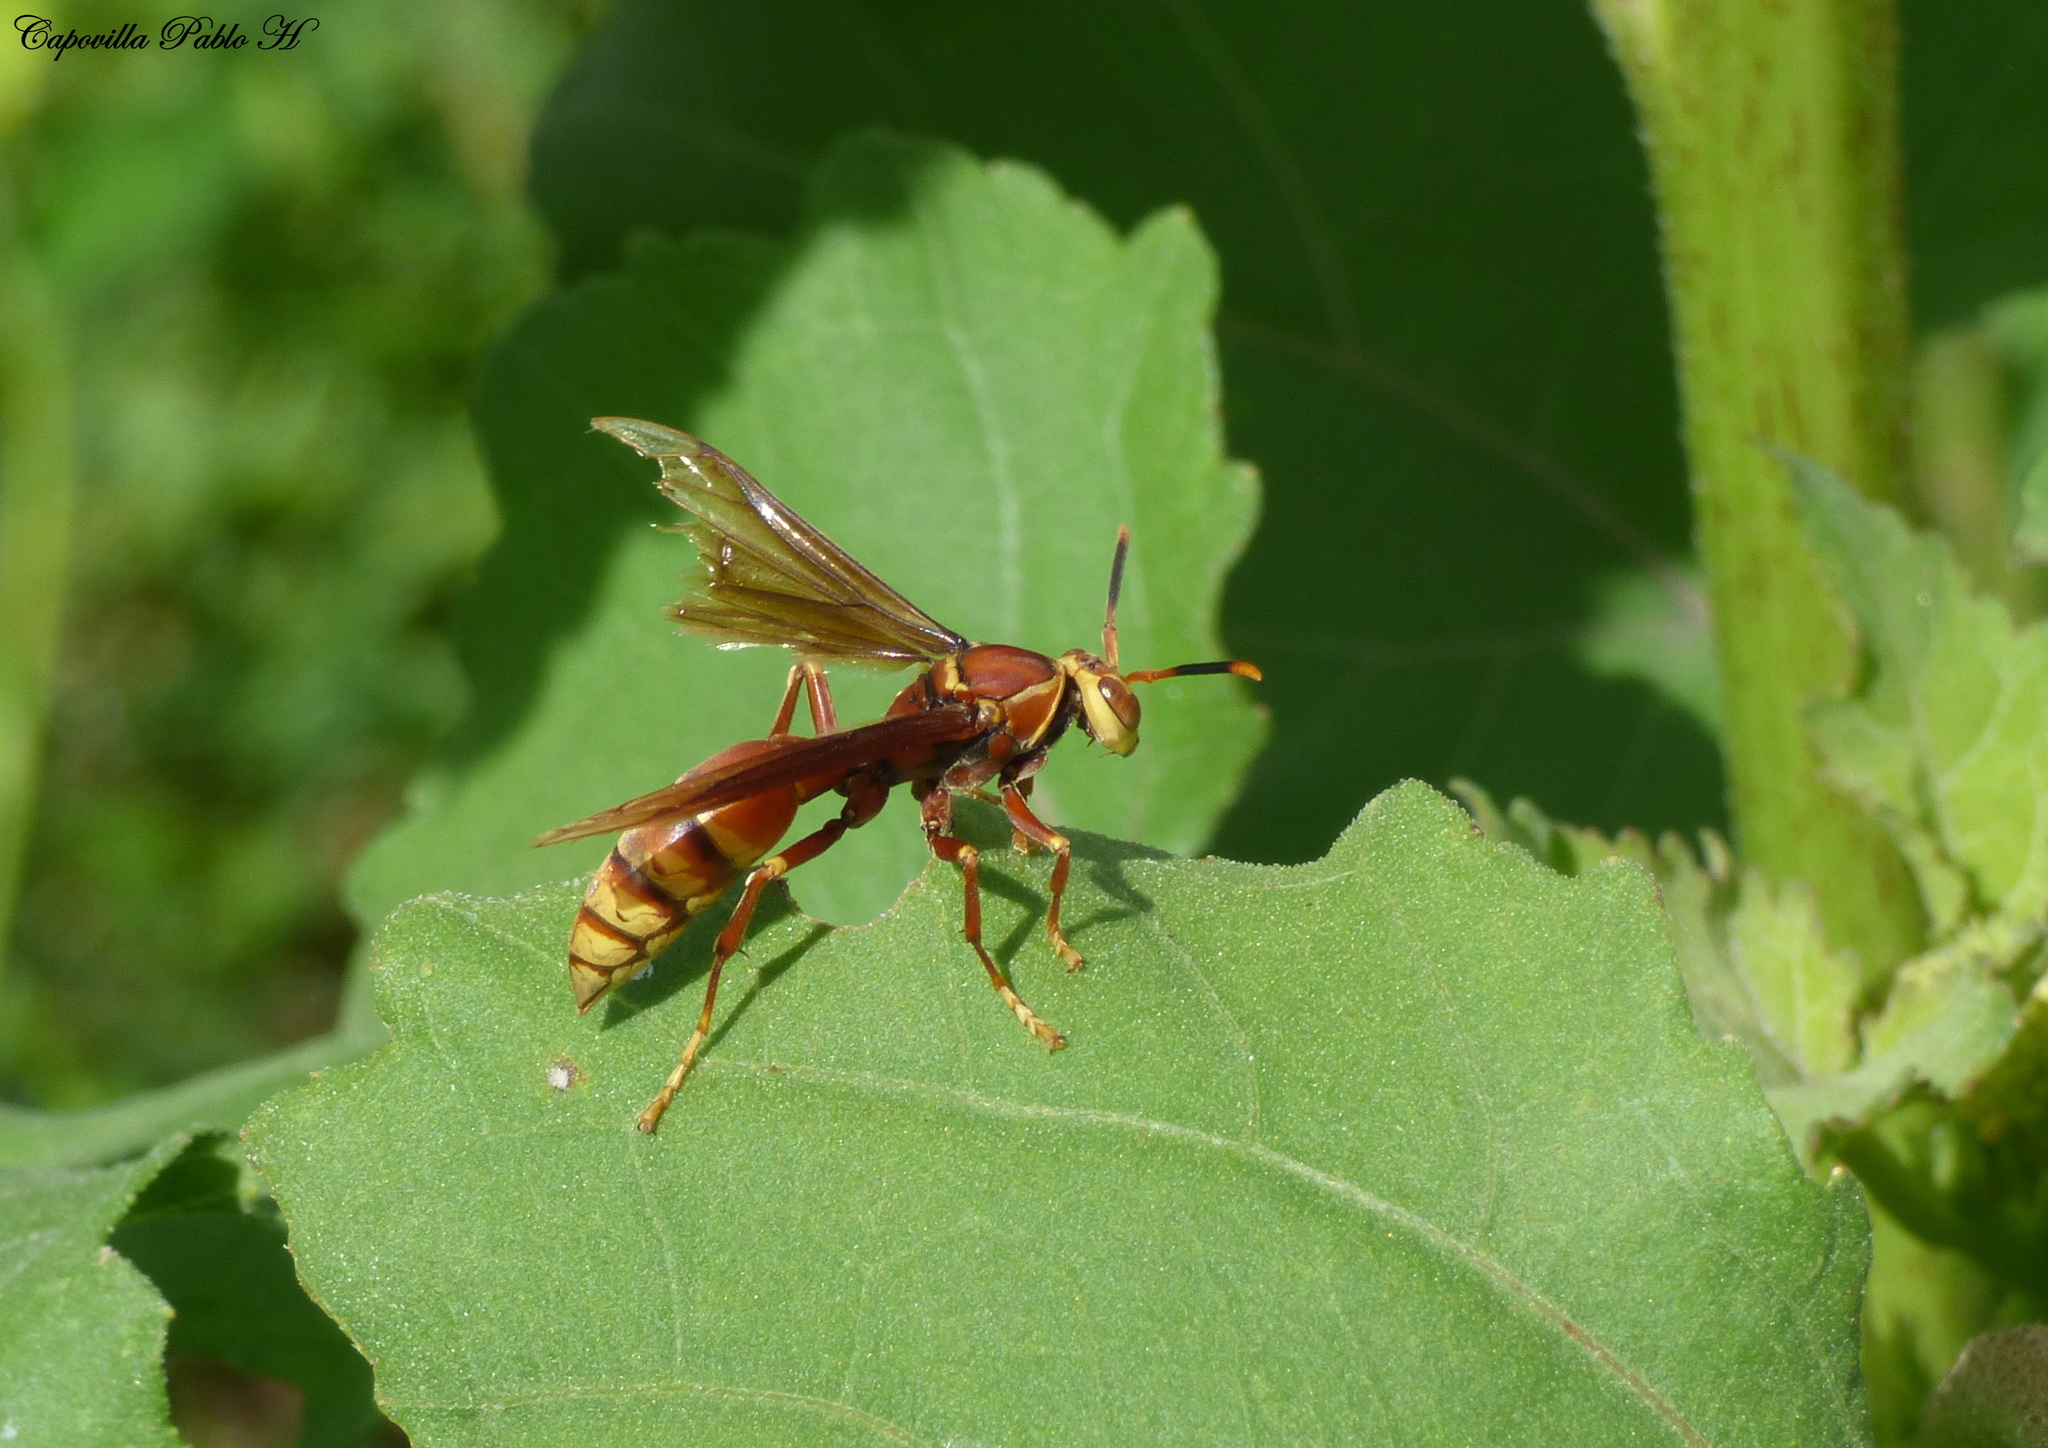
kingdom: Animalia
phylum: Arthropoda
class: Insecta
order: Hymenoptera
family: Eumenidae
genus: Polistes
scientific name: Polistes cavapyta
